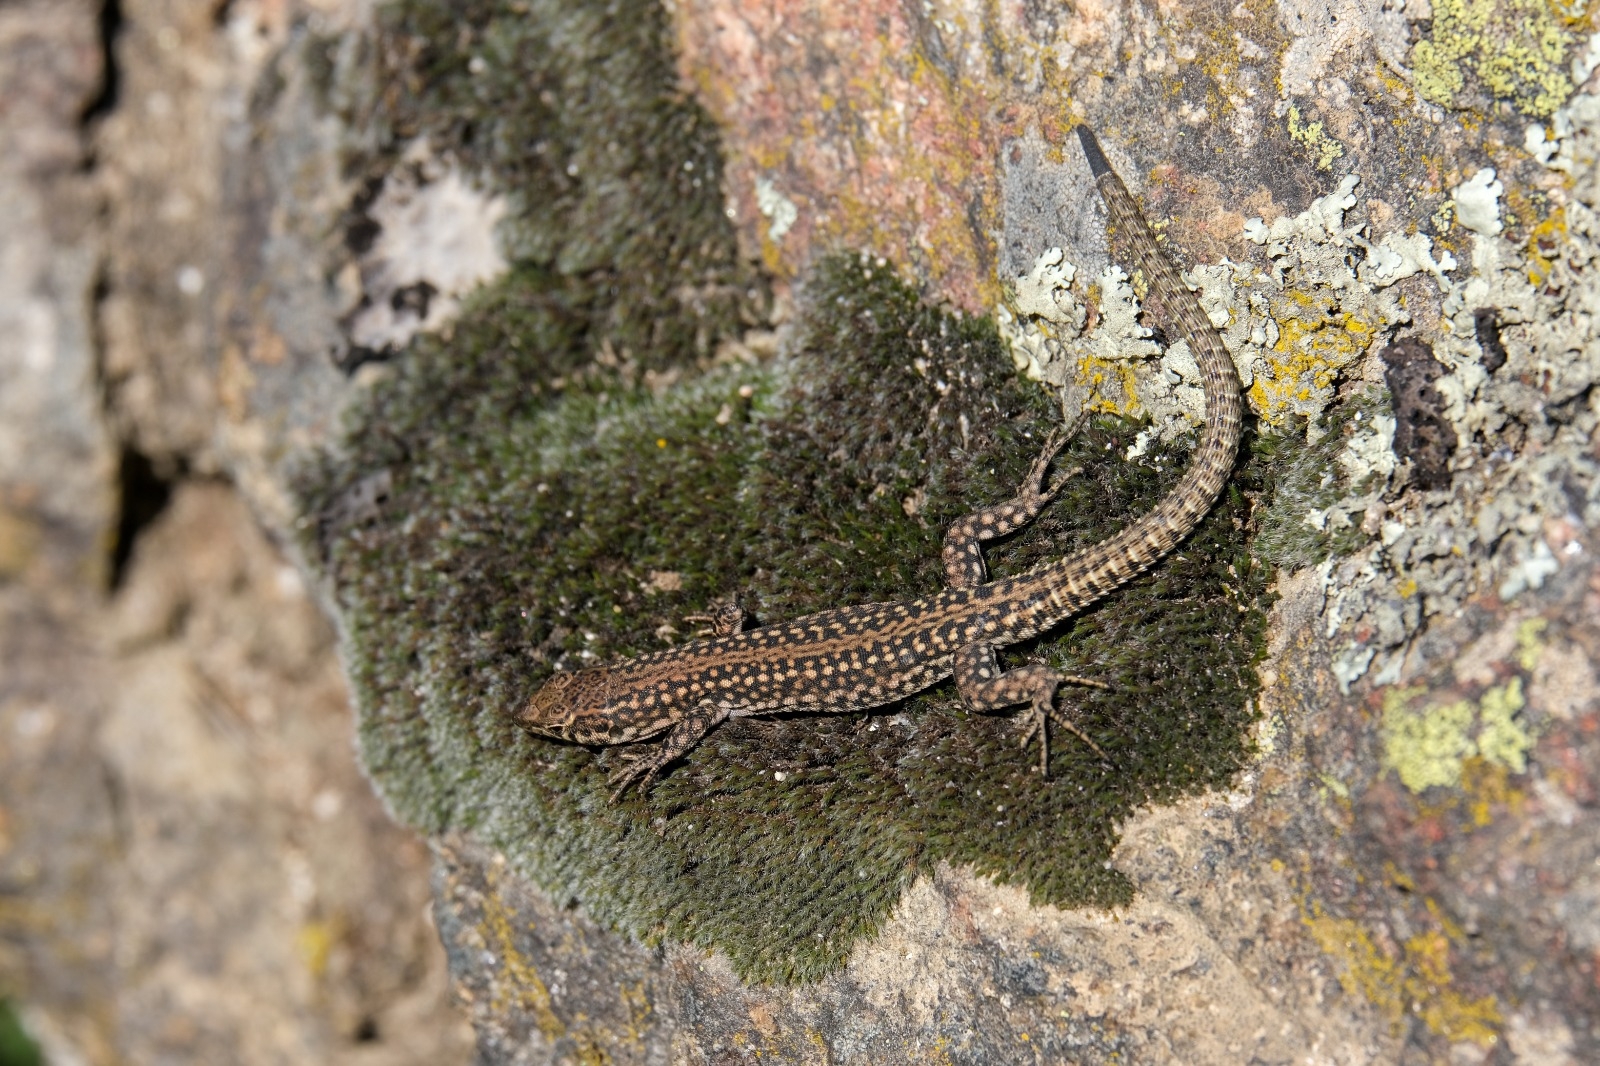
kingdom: Animalia
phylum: Chordata
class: Squamata
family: Lacertidae
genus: Podarcis
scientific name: Podarcis guadarramae
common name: Guadarrama wall lizard
